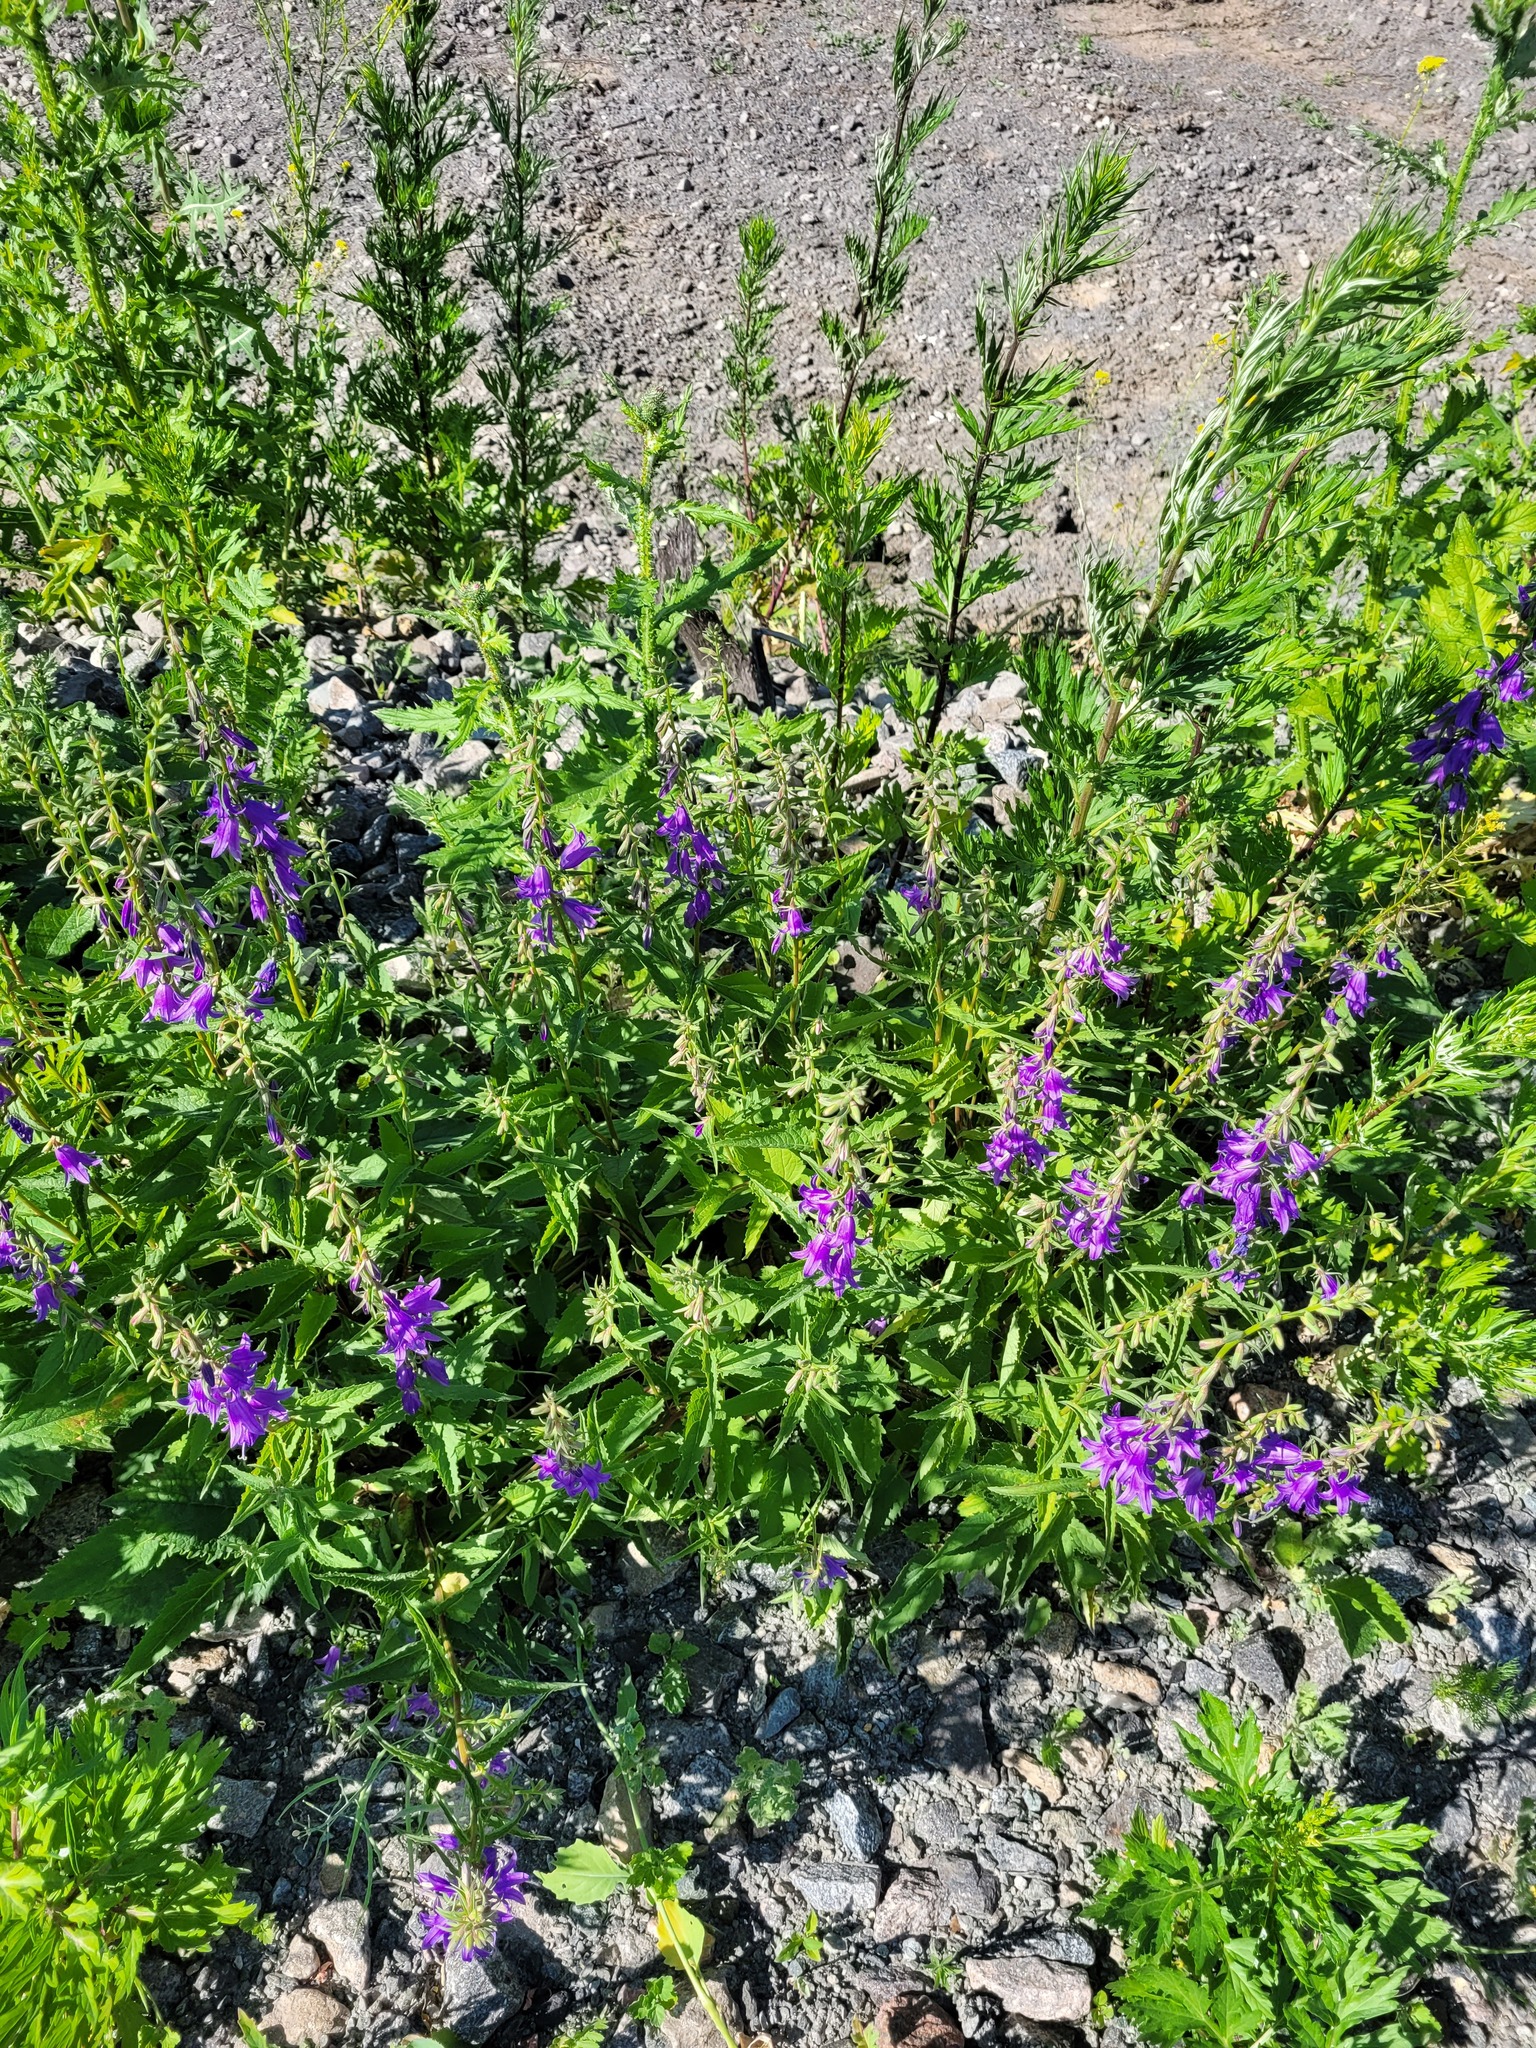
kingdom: Plantae
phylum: Tracheophyta
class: Magnoliopsida
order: Asterales
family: Campanulaceae
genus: Campanula
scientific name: Campanula rapunculoides
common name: Creeping bellflower
